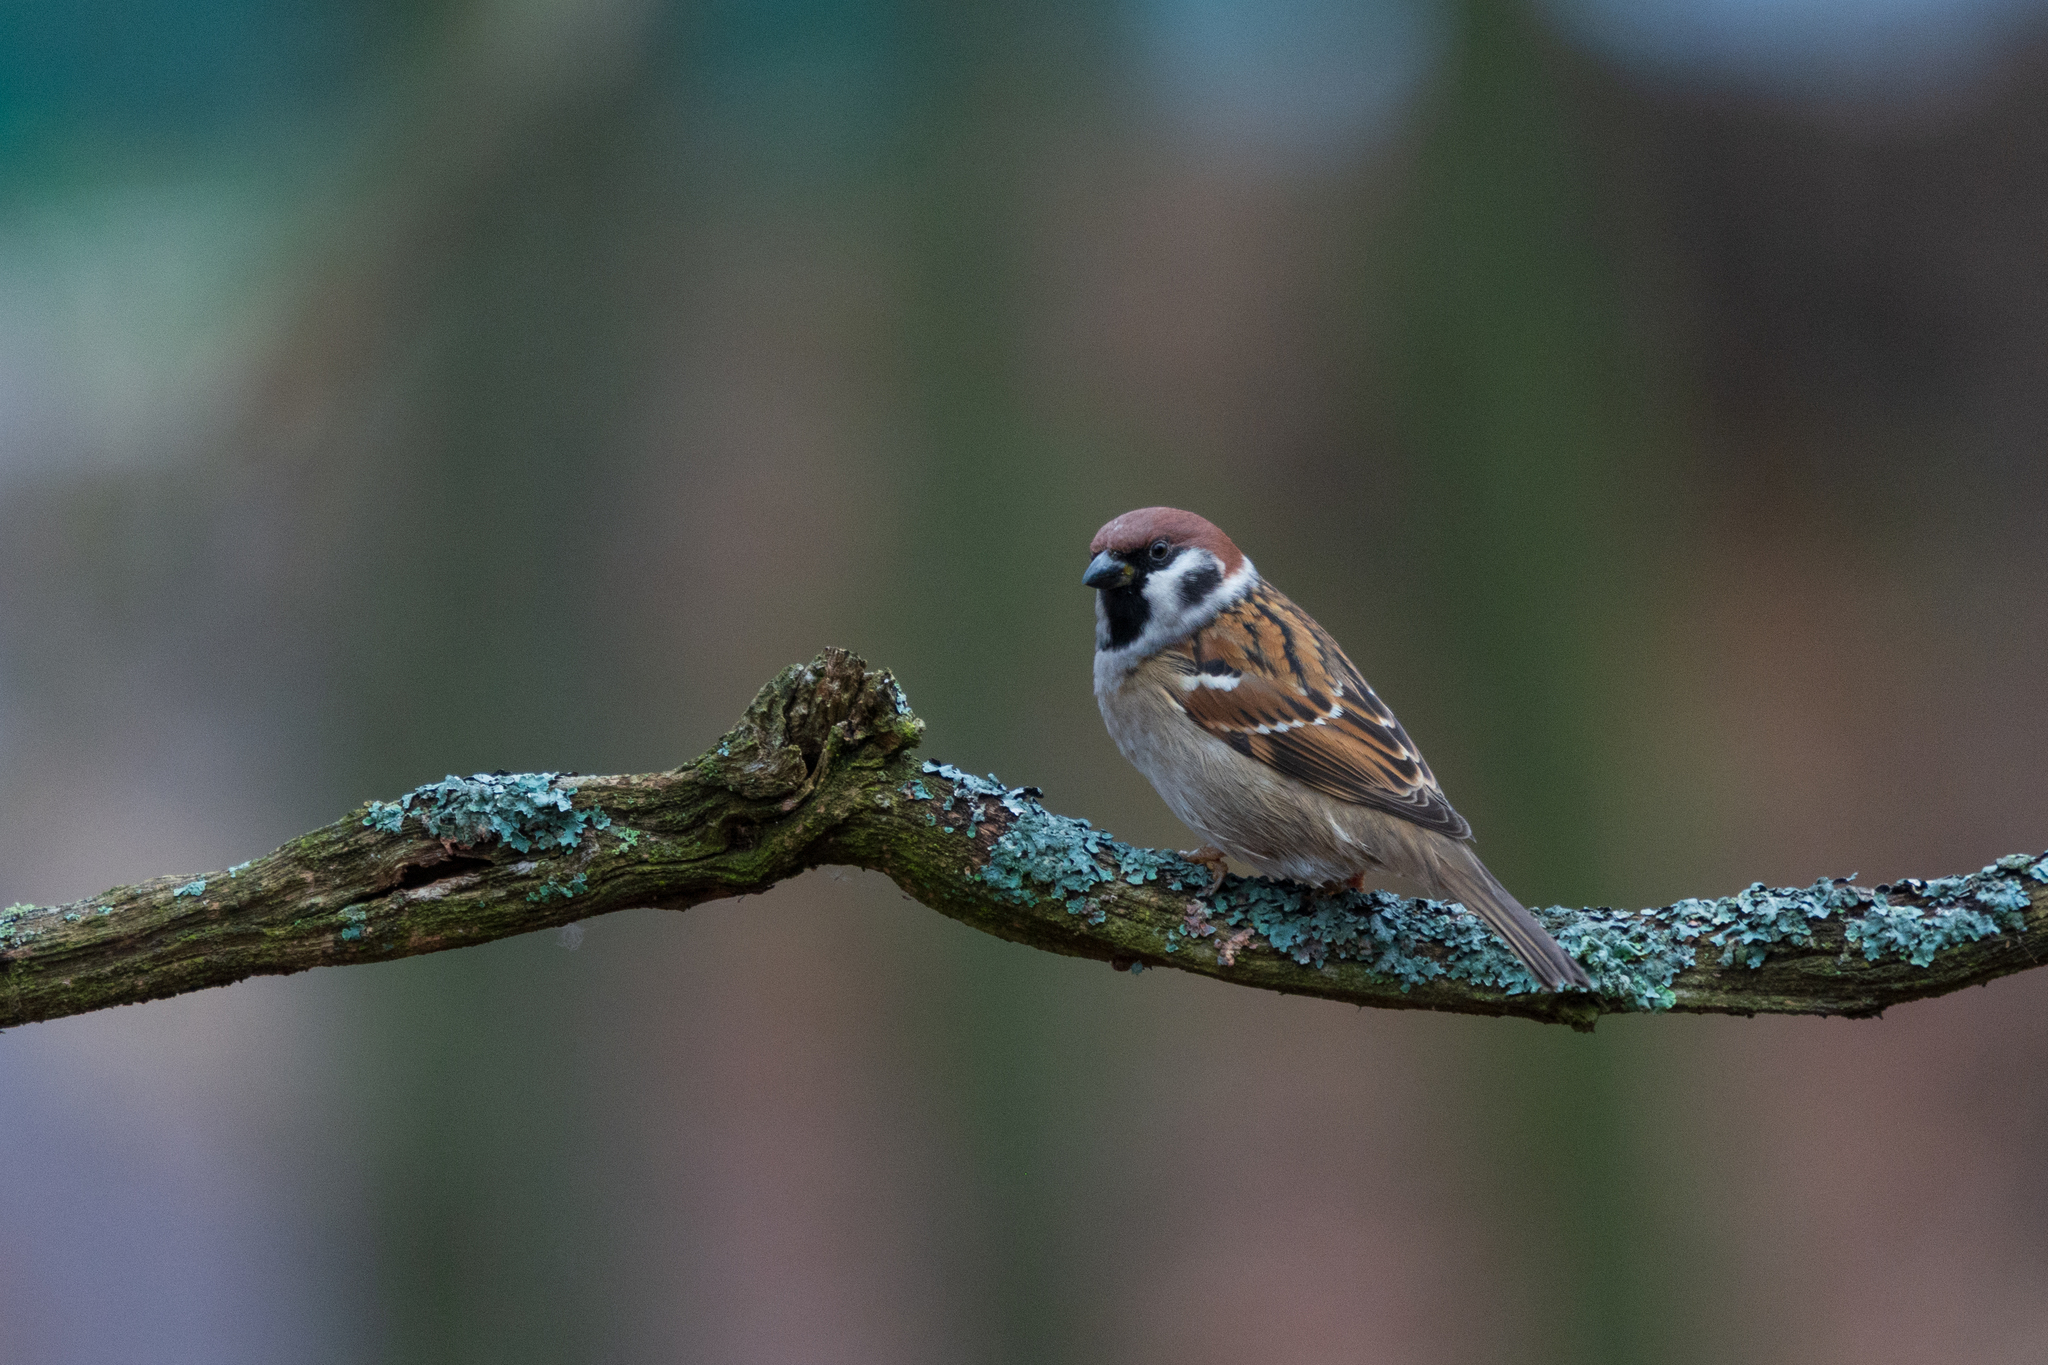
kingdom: Animalia
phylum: Chordata
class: Aves
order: Passeriformes
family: Passeridae
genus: Passer
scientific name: Passer montanus
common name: Eurasian tree sparrow
